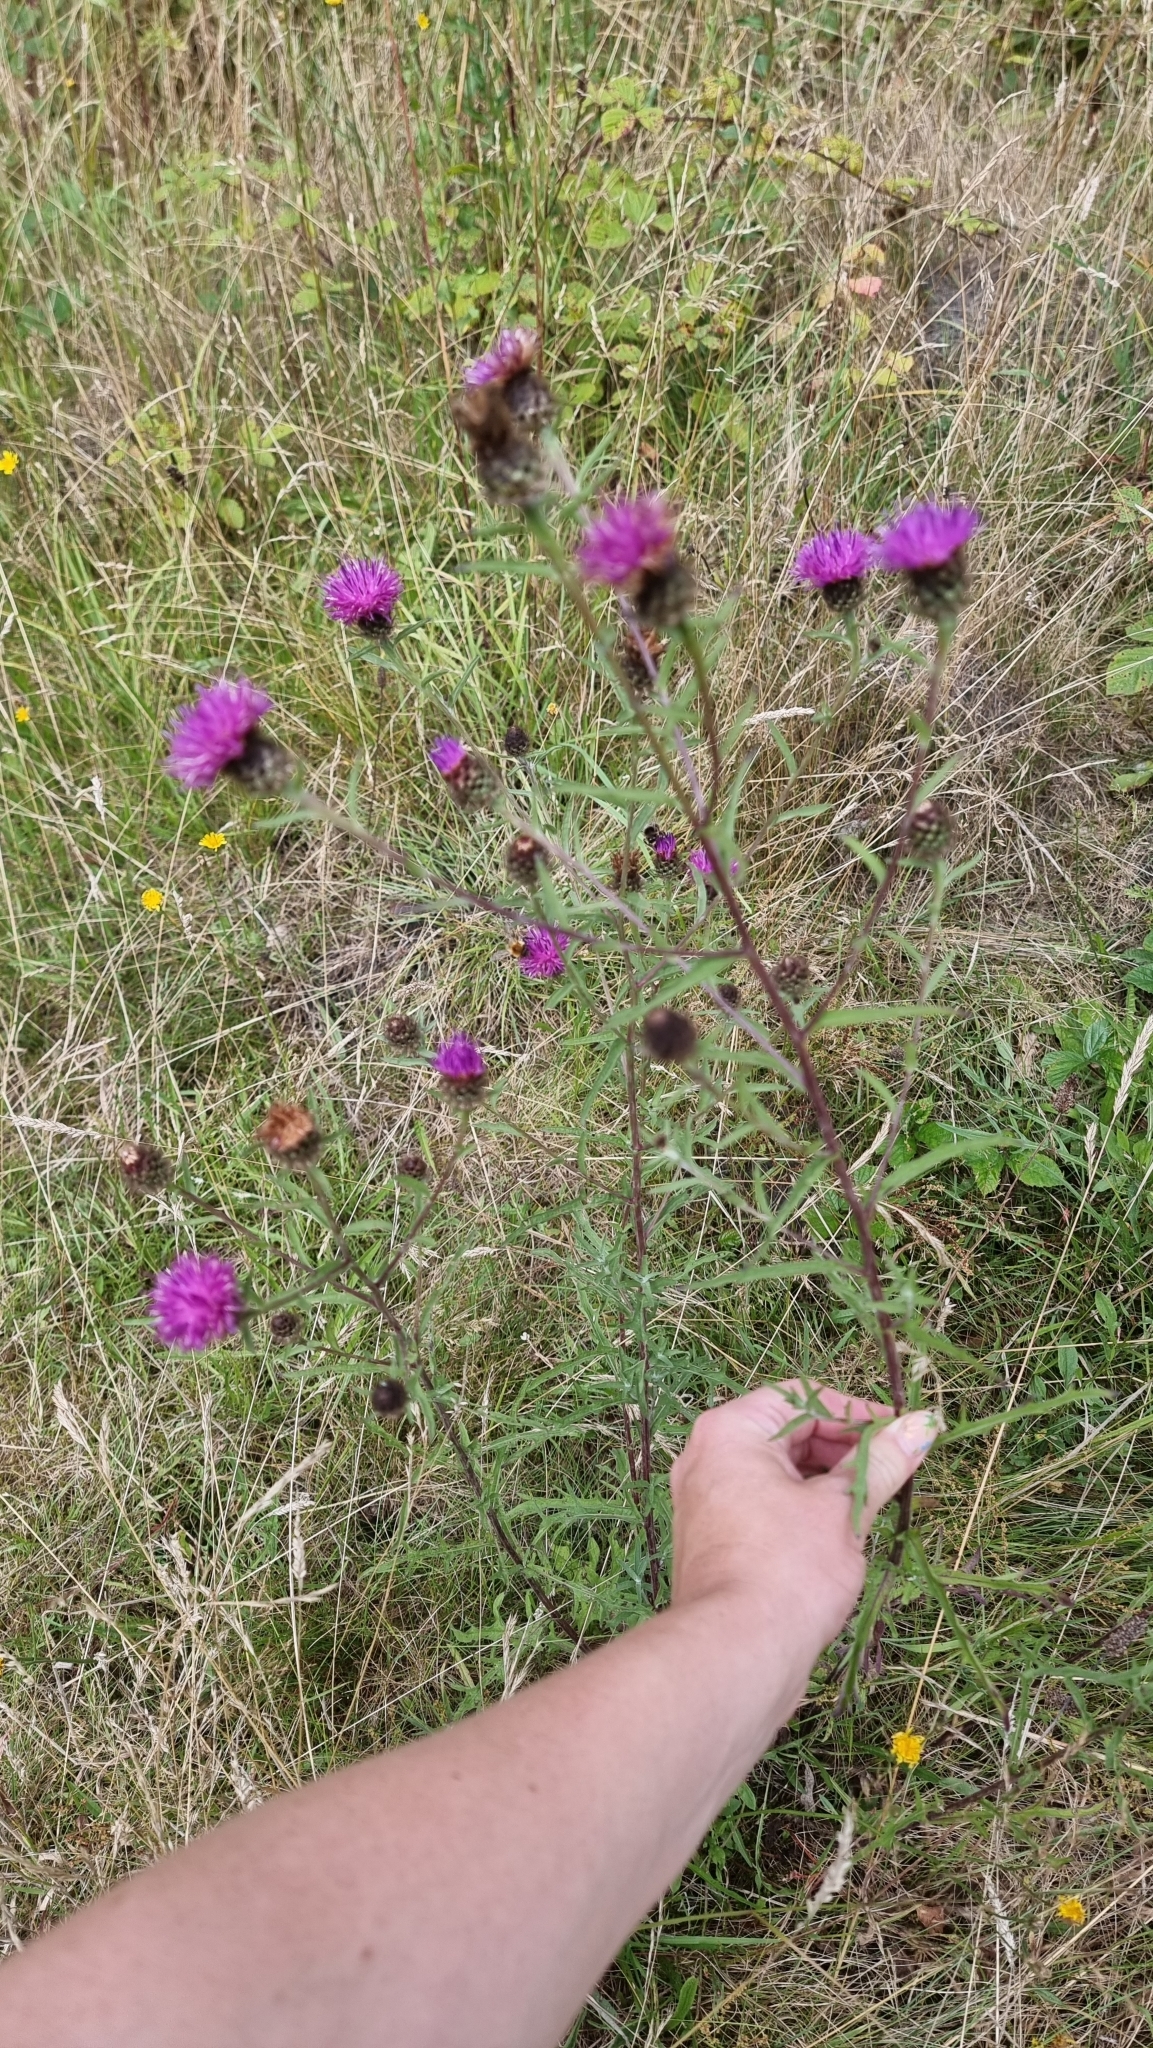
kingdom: Plantae
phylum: Tracheophyta
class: Magnoliopsida
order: Asterales
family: Asteraceae
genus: Centaurea
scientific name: Centaurea nigra
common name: Lesser knapweed
